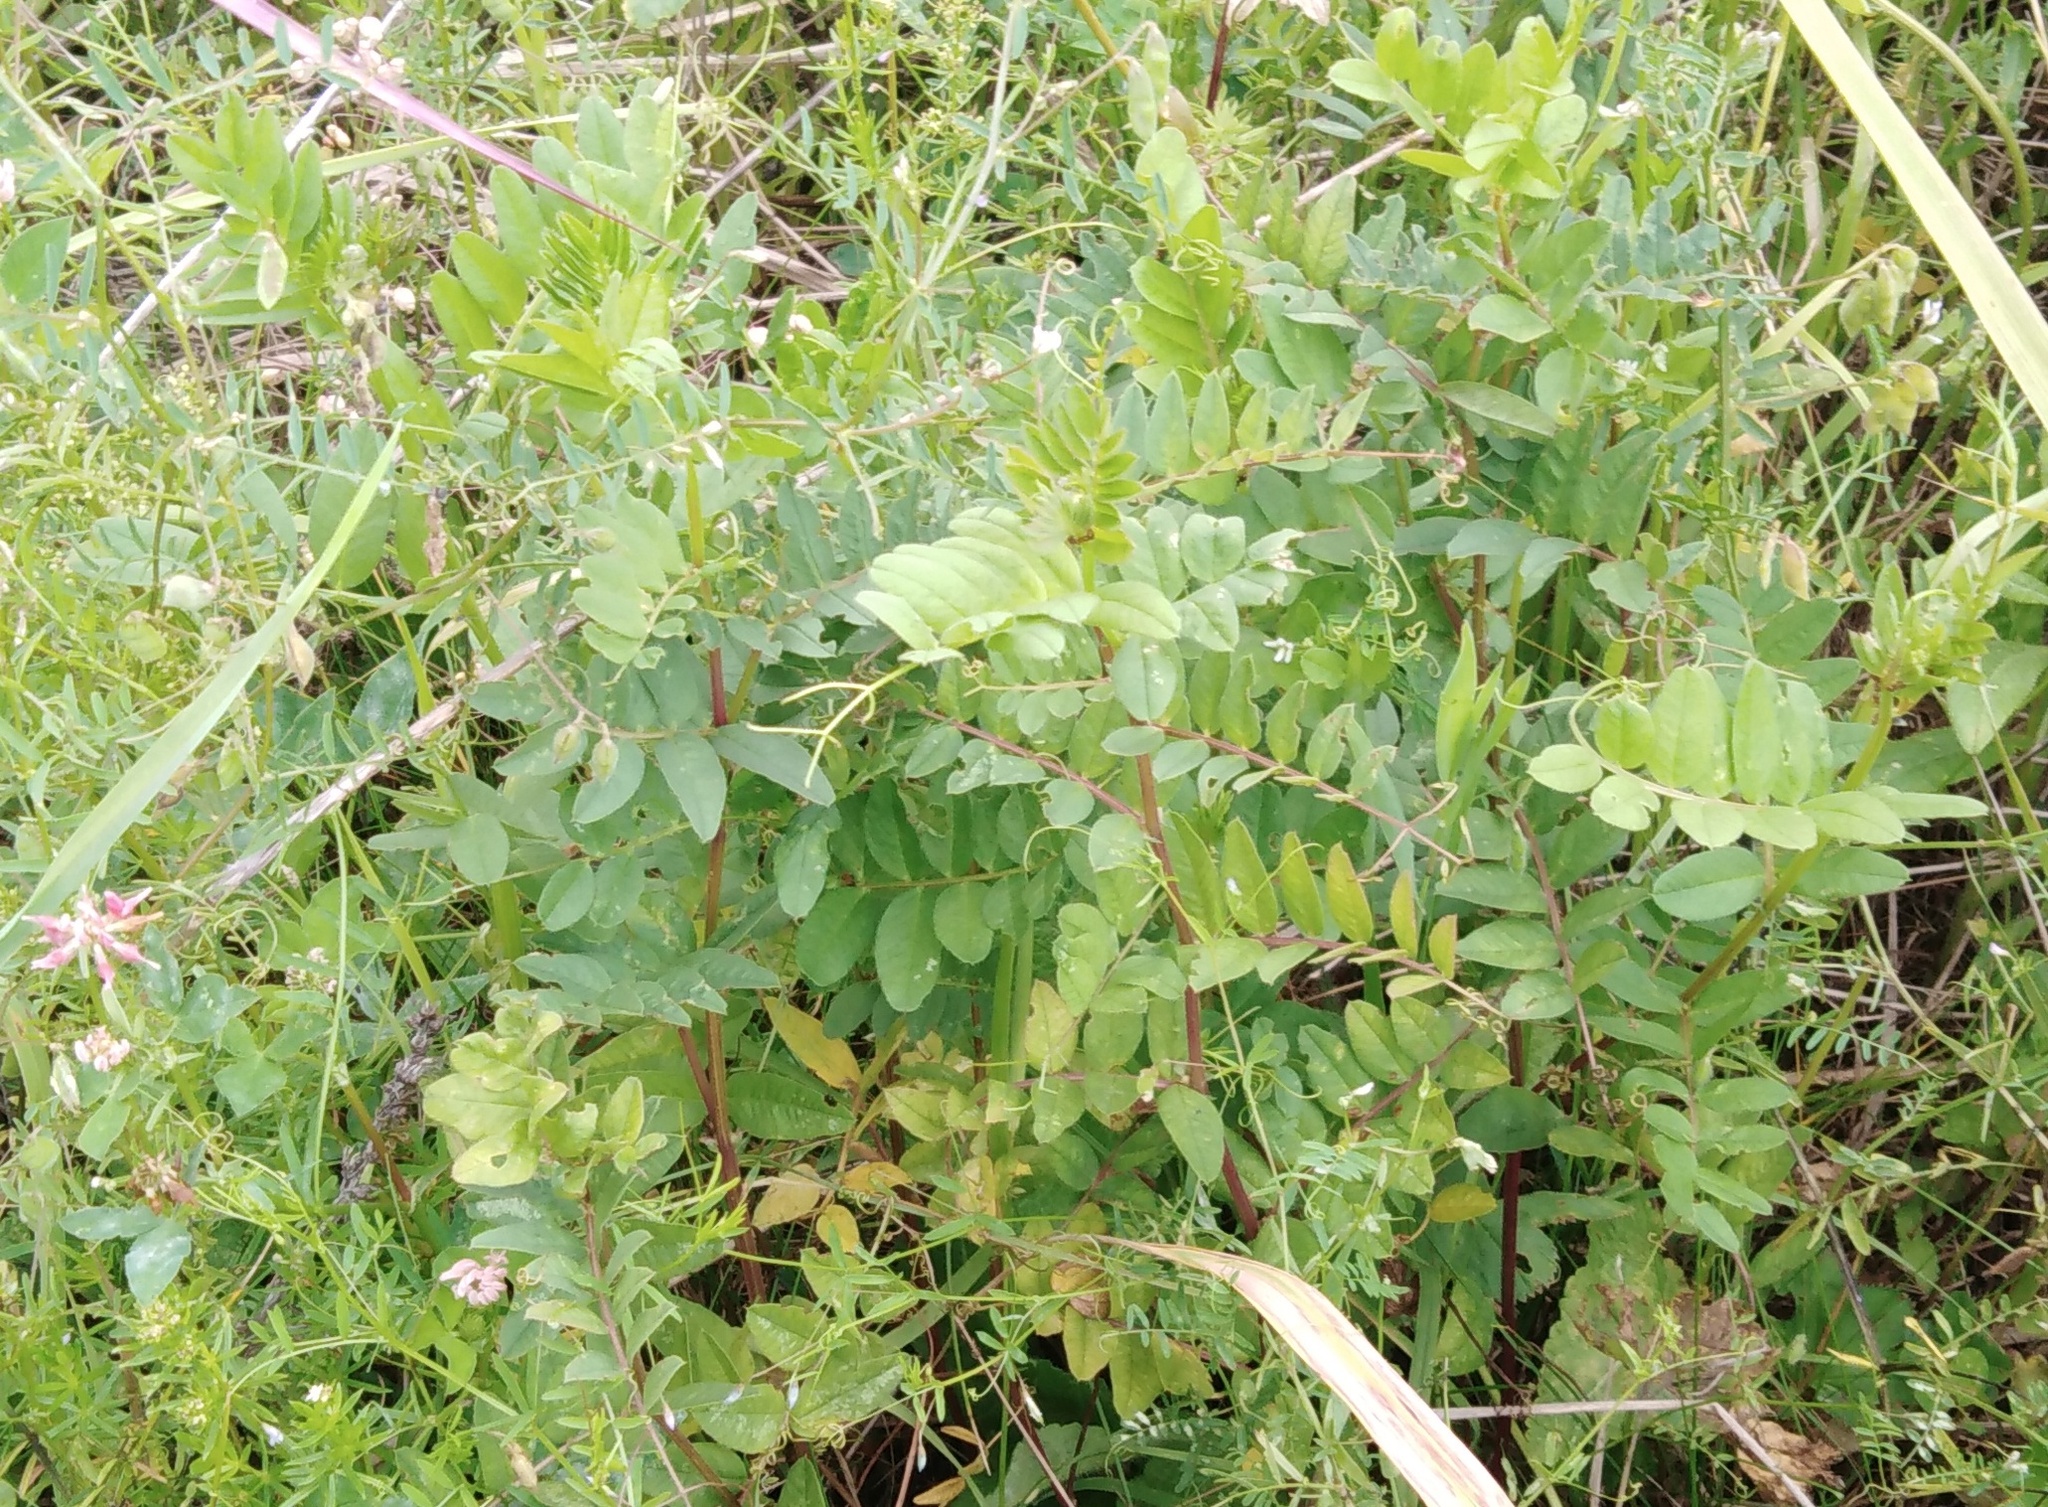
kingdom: Plantae
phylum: Tracheophyta
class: Magnoliopsida
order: Fabales
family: Fabaceae
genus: Vicia
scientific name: Vicia sepium
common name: Bush vetch
